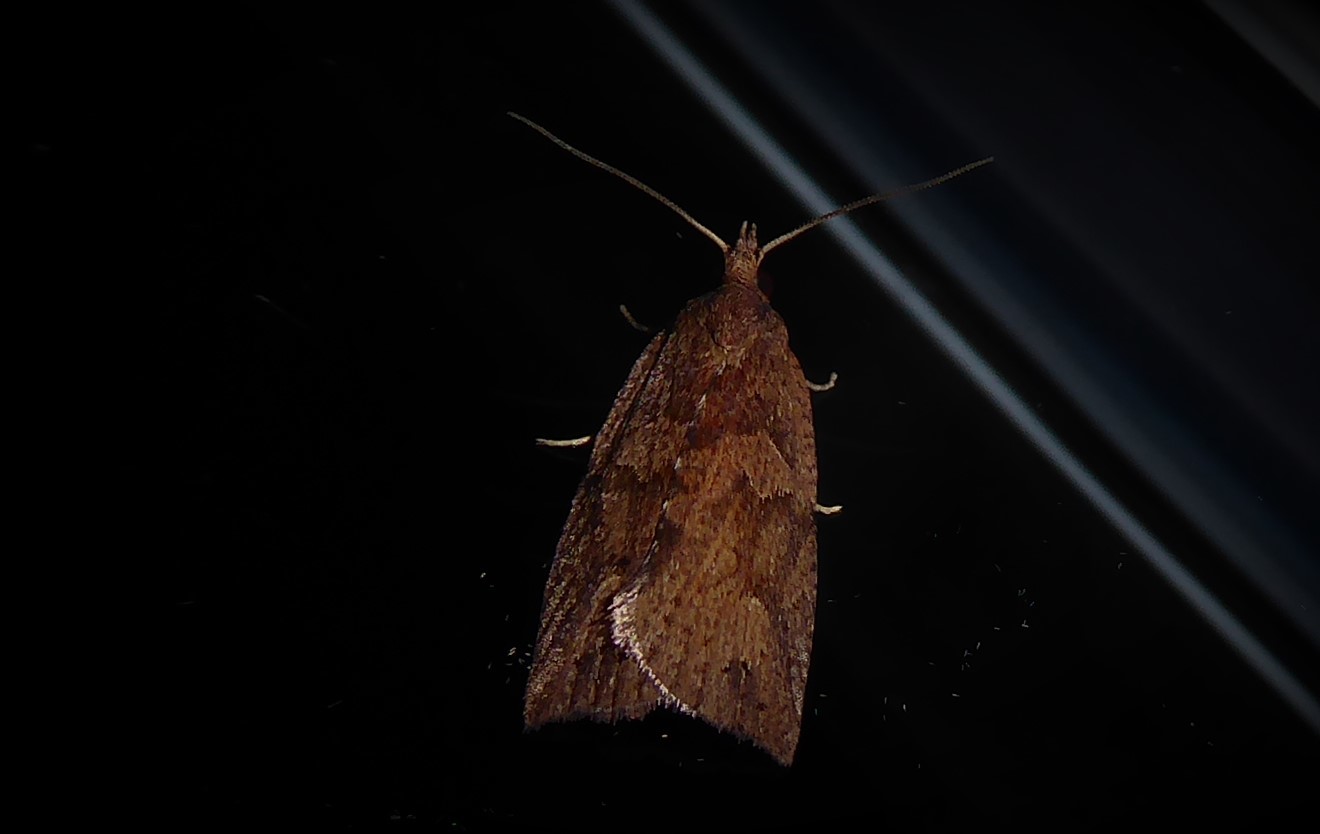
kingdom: Animalia
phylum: Arthropoda
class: Insecta
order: Lepidoptera
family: Tortricidae
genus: Planotortrix
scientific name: Planotortrix notophaea
